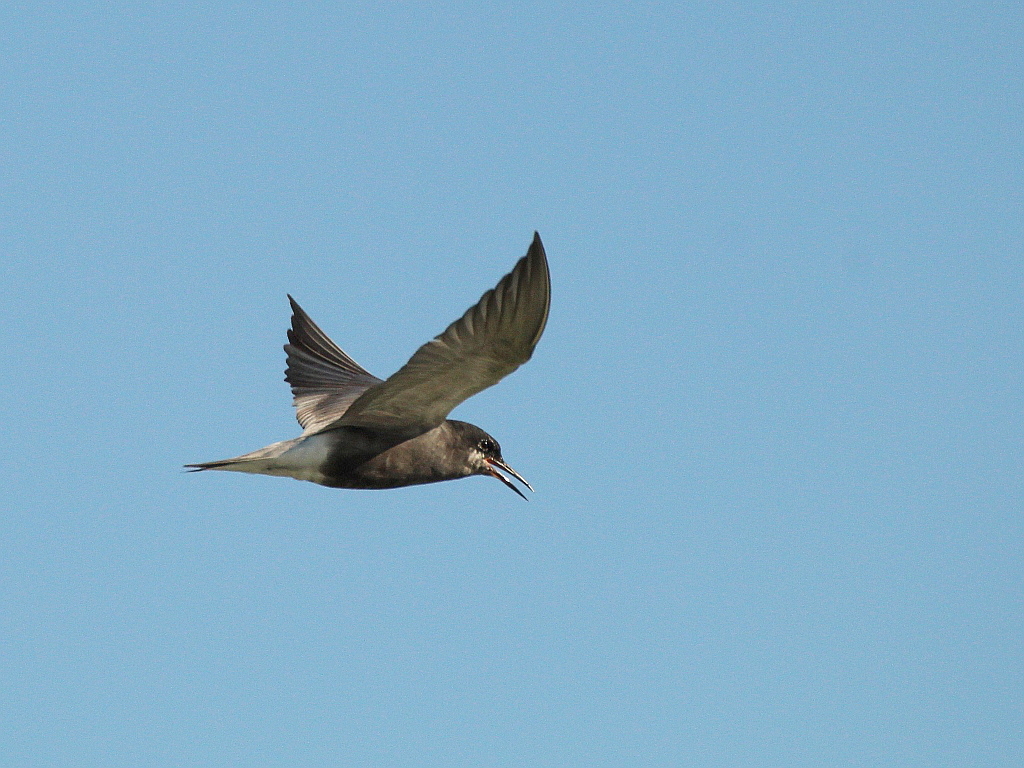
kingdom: Animalia
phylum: Chordata
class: Aves
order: Charadriiformes
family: Laridae
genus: Chlidonias
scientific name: Chlidonias niger
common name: Black tern
